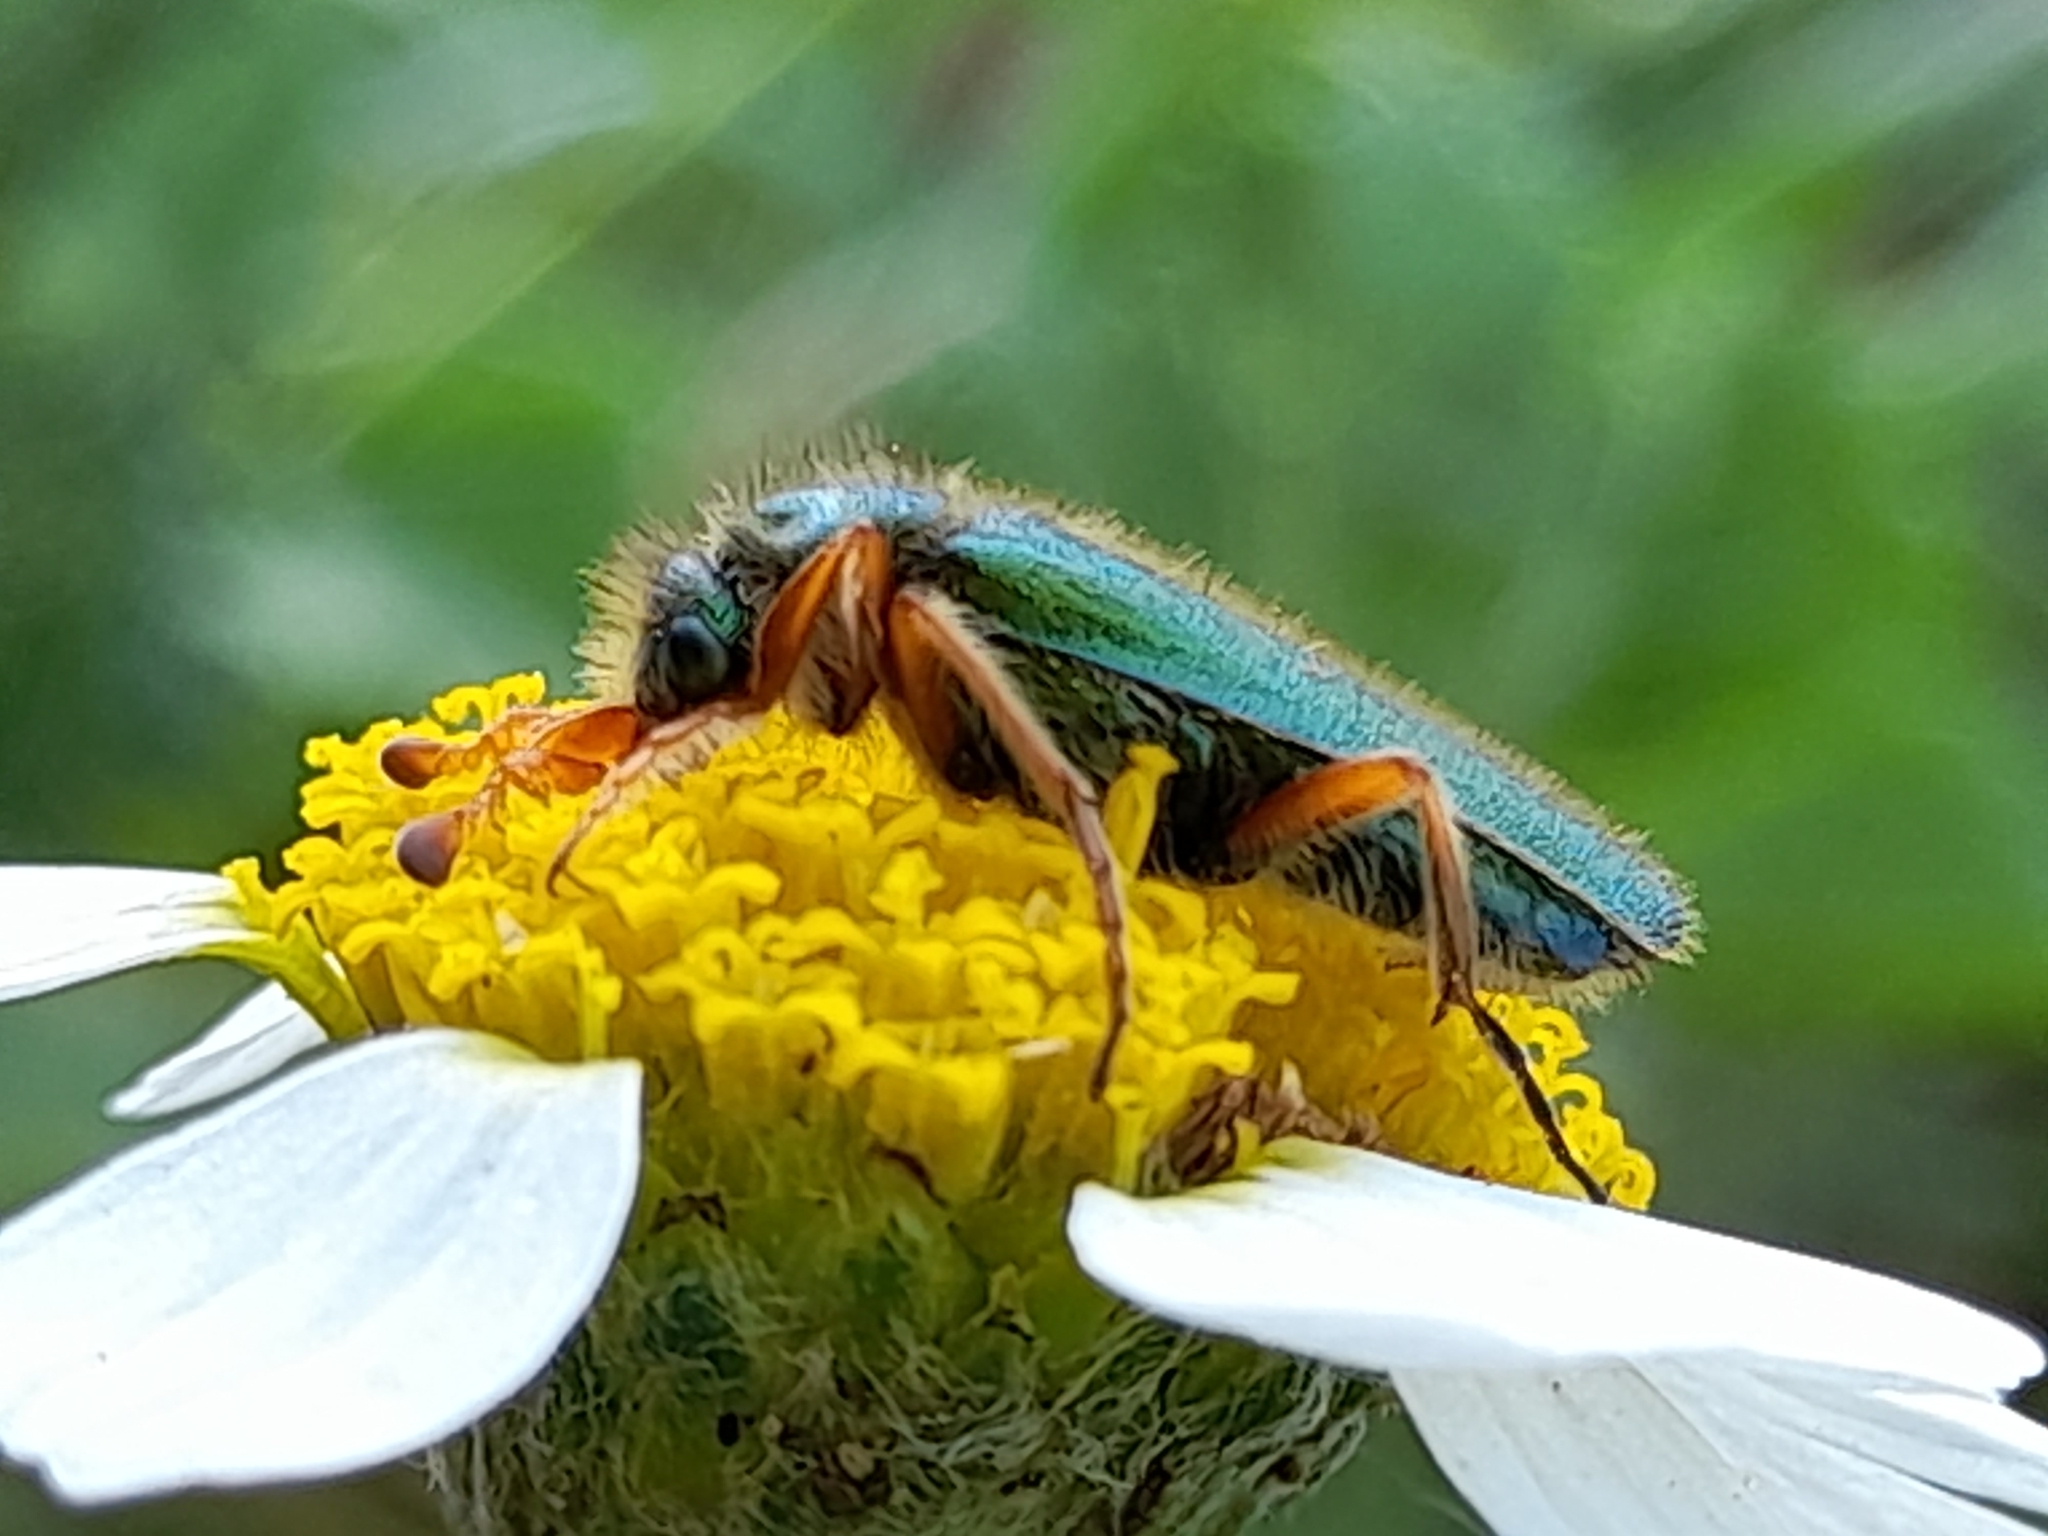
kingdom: Animalia
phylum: Arthropoda
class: Insecta
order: Coleoptera
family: Meloidae
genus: Cerocoma
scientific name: Cerocoma schaefferi
